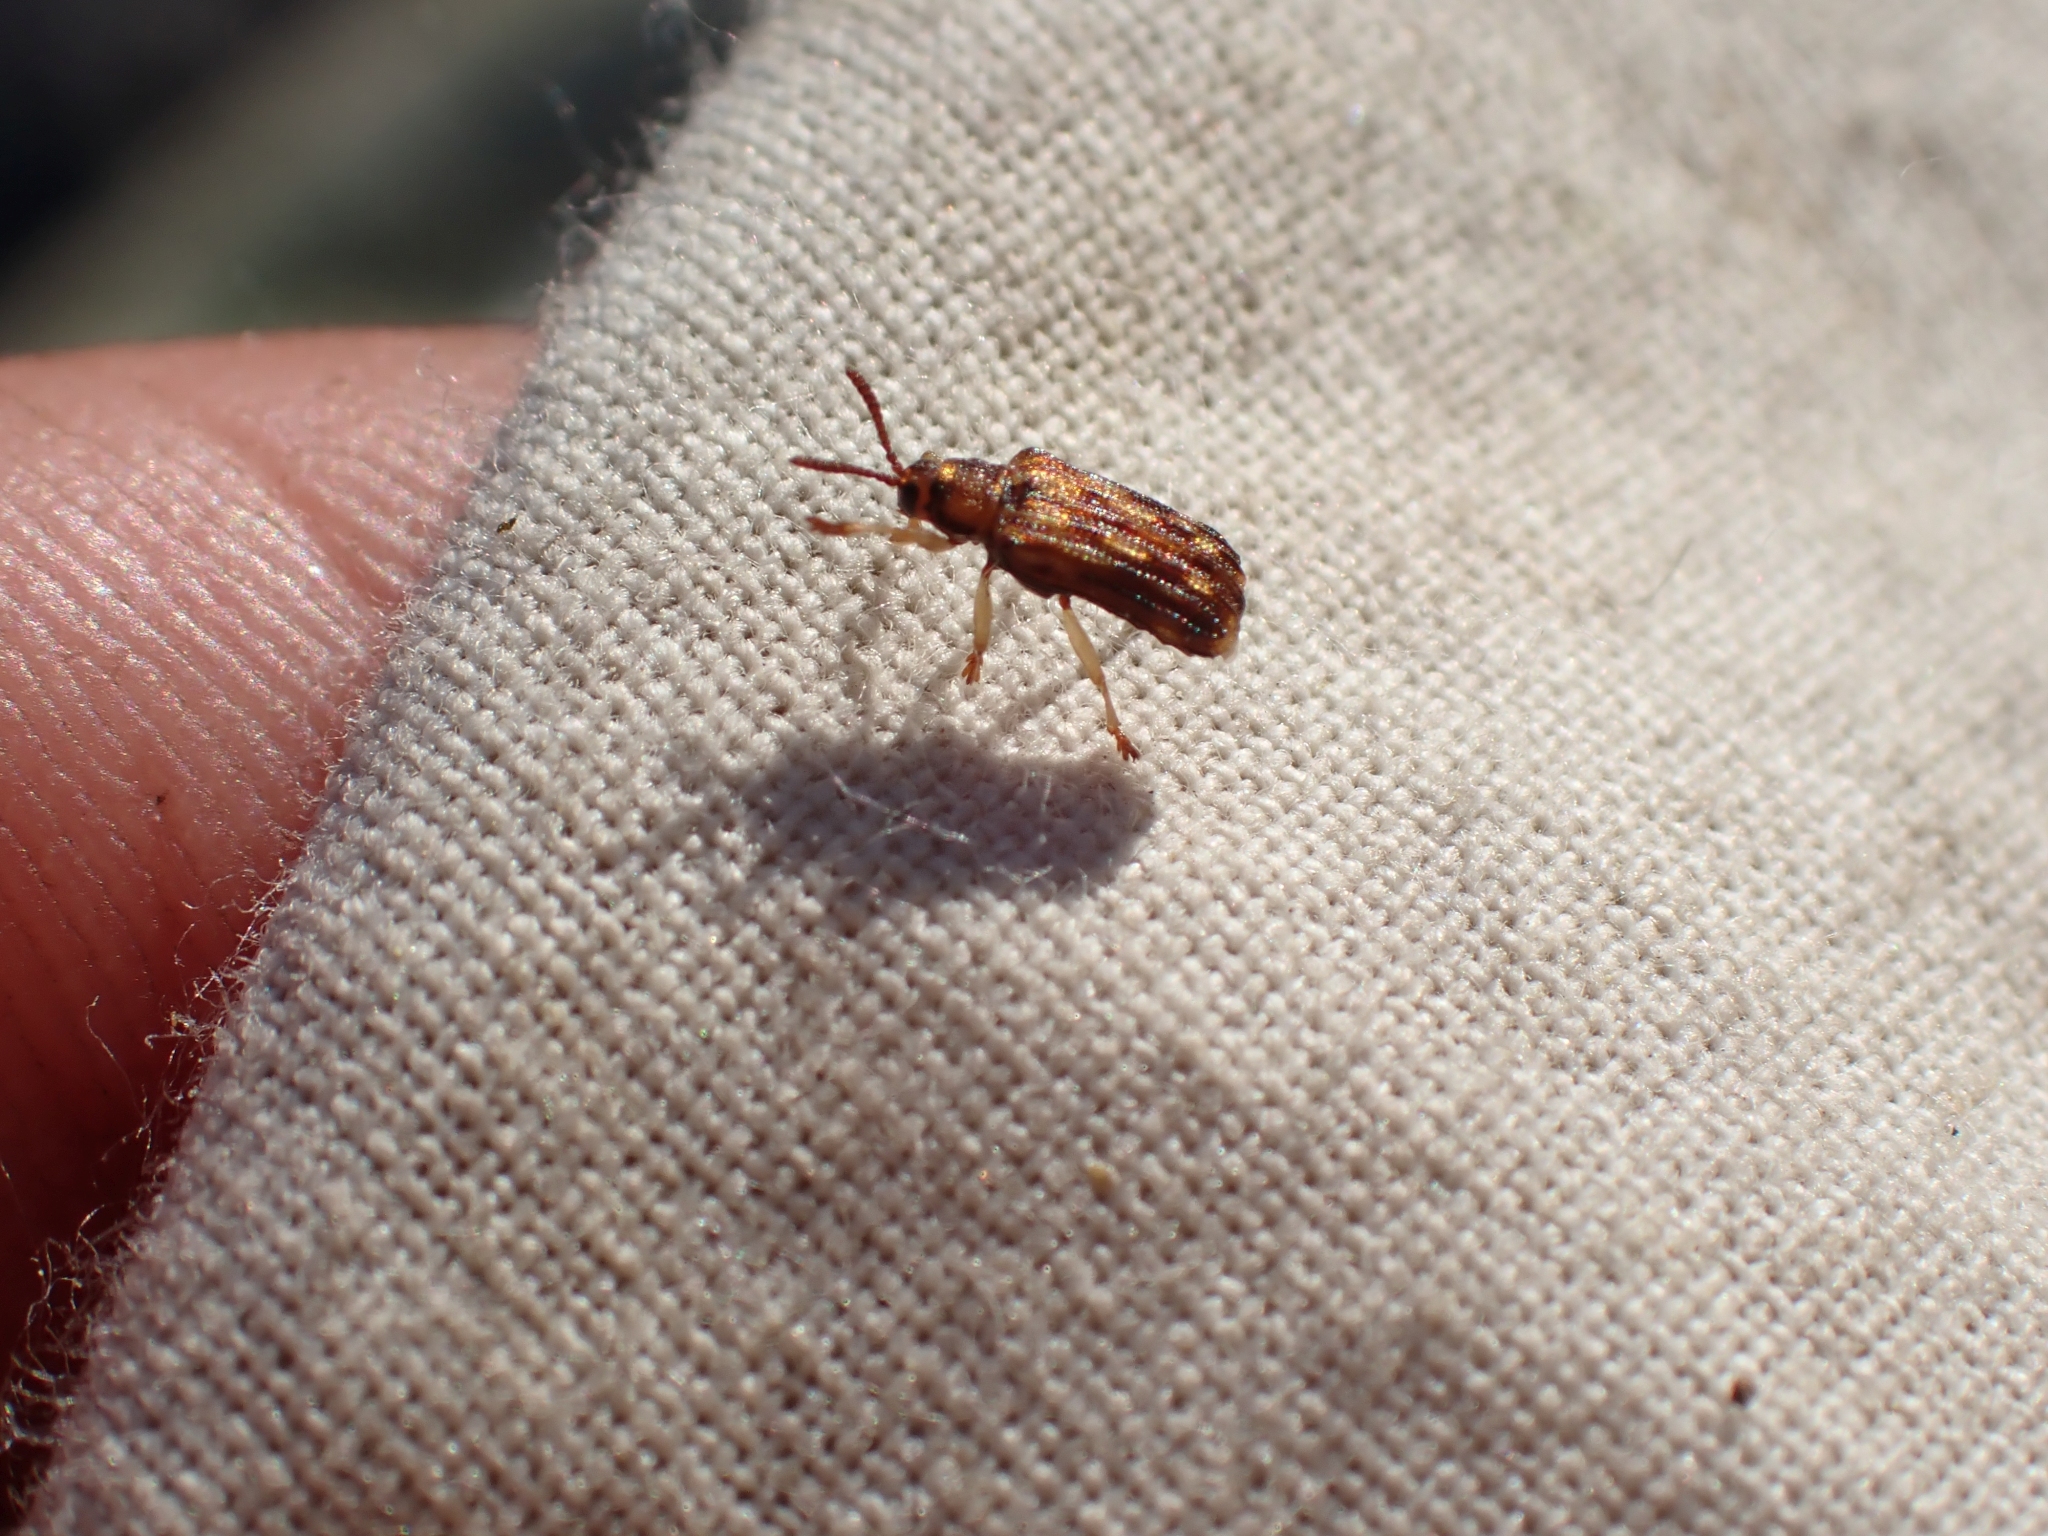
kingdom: Animalia
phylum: Arthropoda
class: Insecta
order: Coleoptera
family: Chrysomelidae
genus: Sumitrosis
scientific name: Sumitrosis inaequalis
